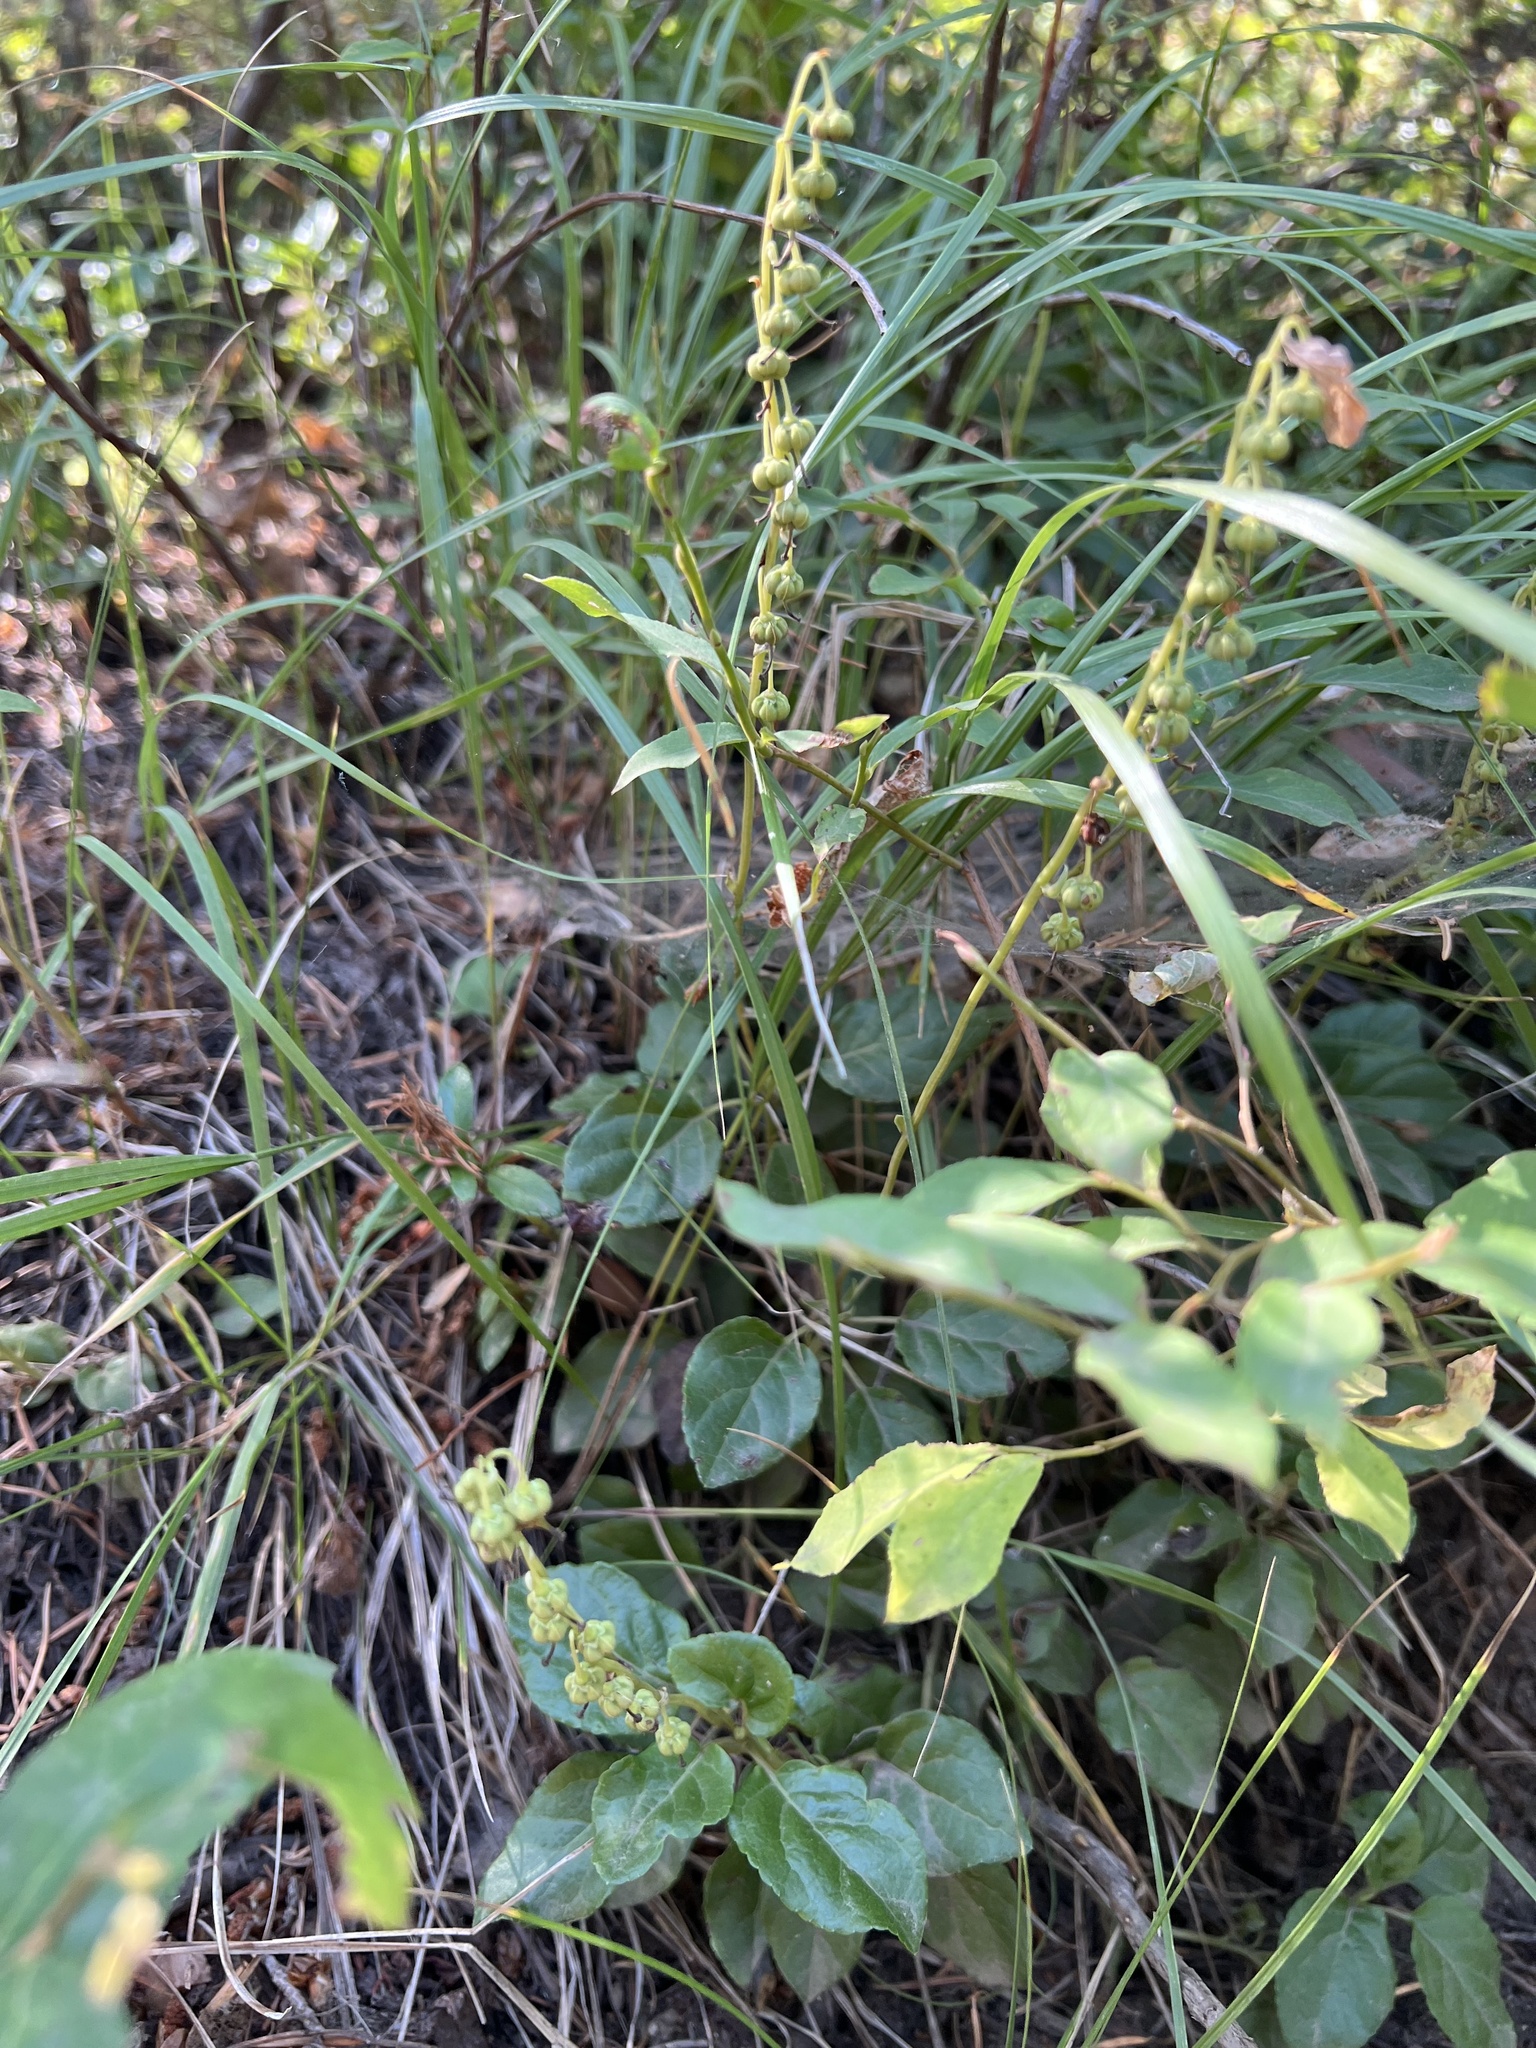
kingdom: Plantae
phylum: Tracheophyta
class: Magnoliopsida
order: Ericales
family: Ericaceae
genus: Orthilia
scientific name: Orthilia secunda
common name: One-sided orthilia
